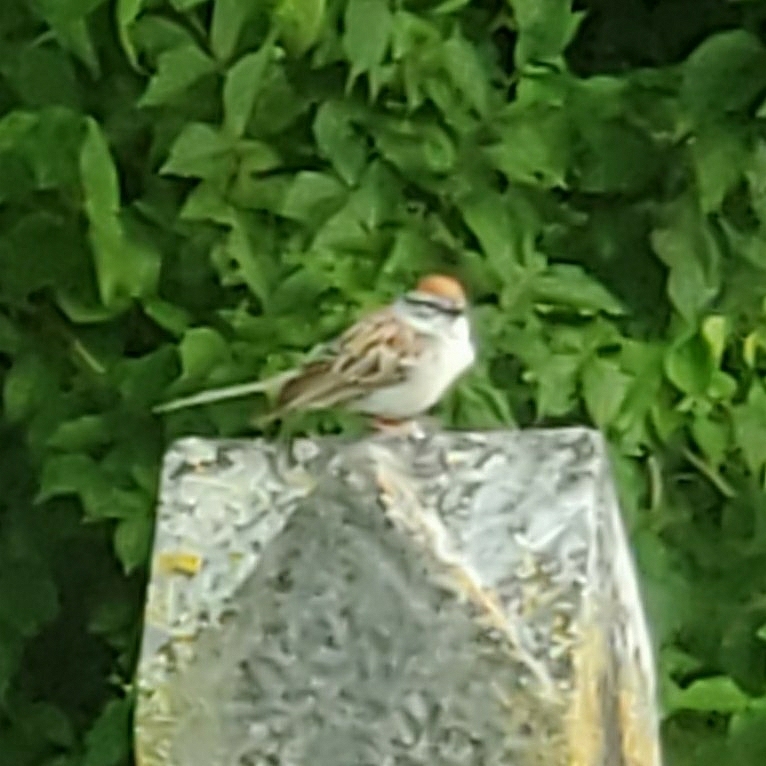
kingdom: Animalia
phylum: Chordata
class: Aves
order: Passeriformes
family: Passerellidae
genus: Spizella
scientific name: Spizella passerina
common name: Chipping sparrow
